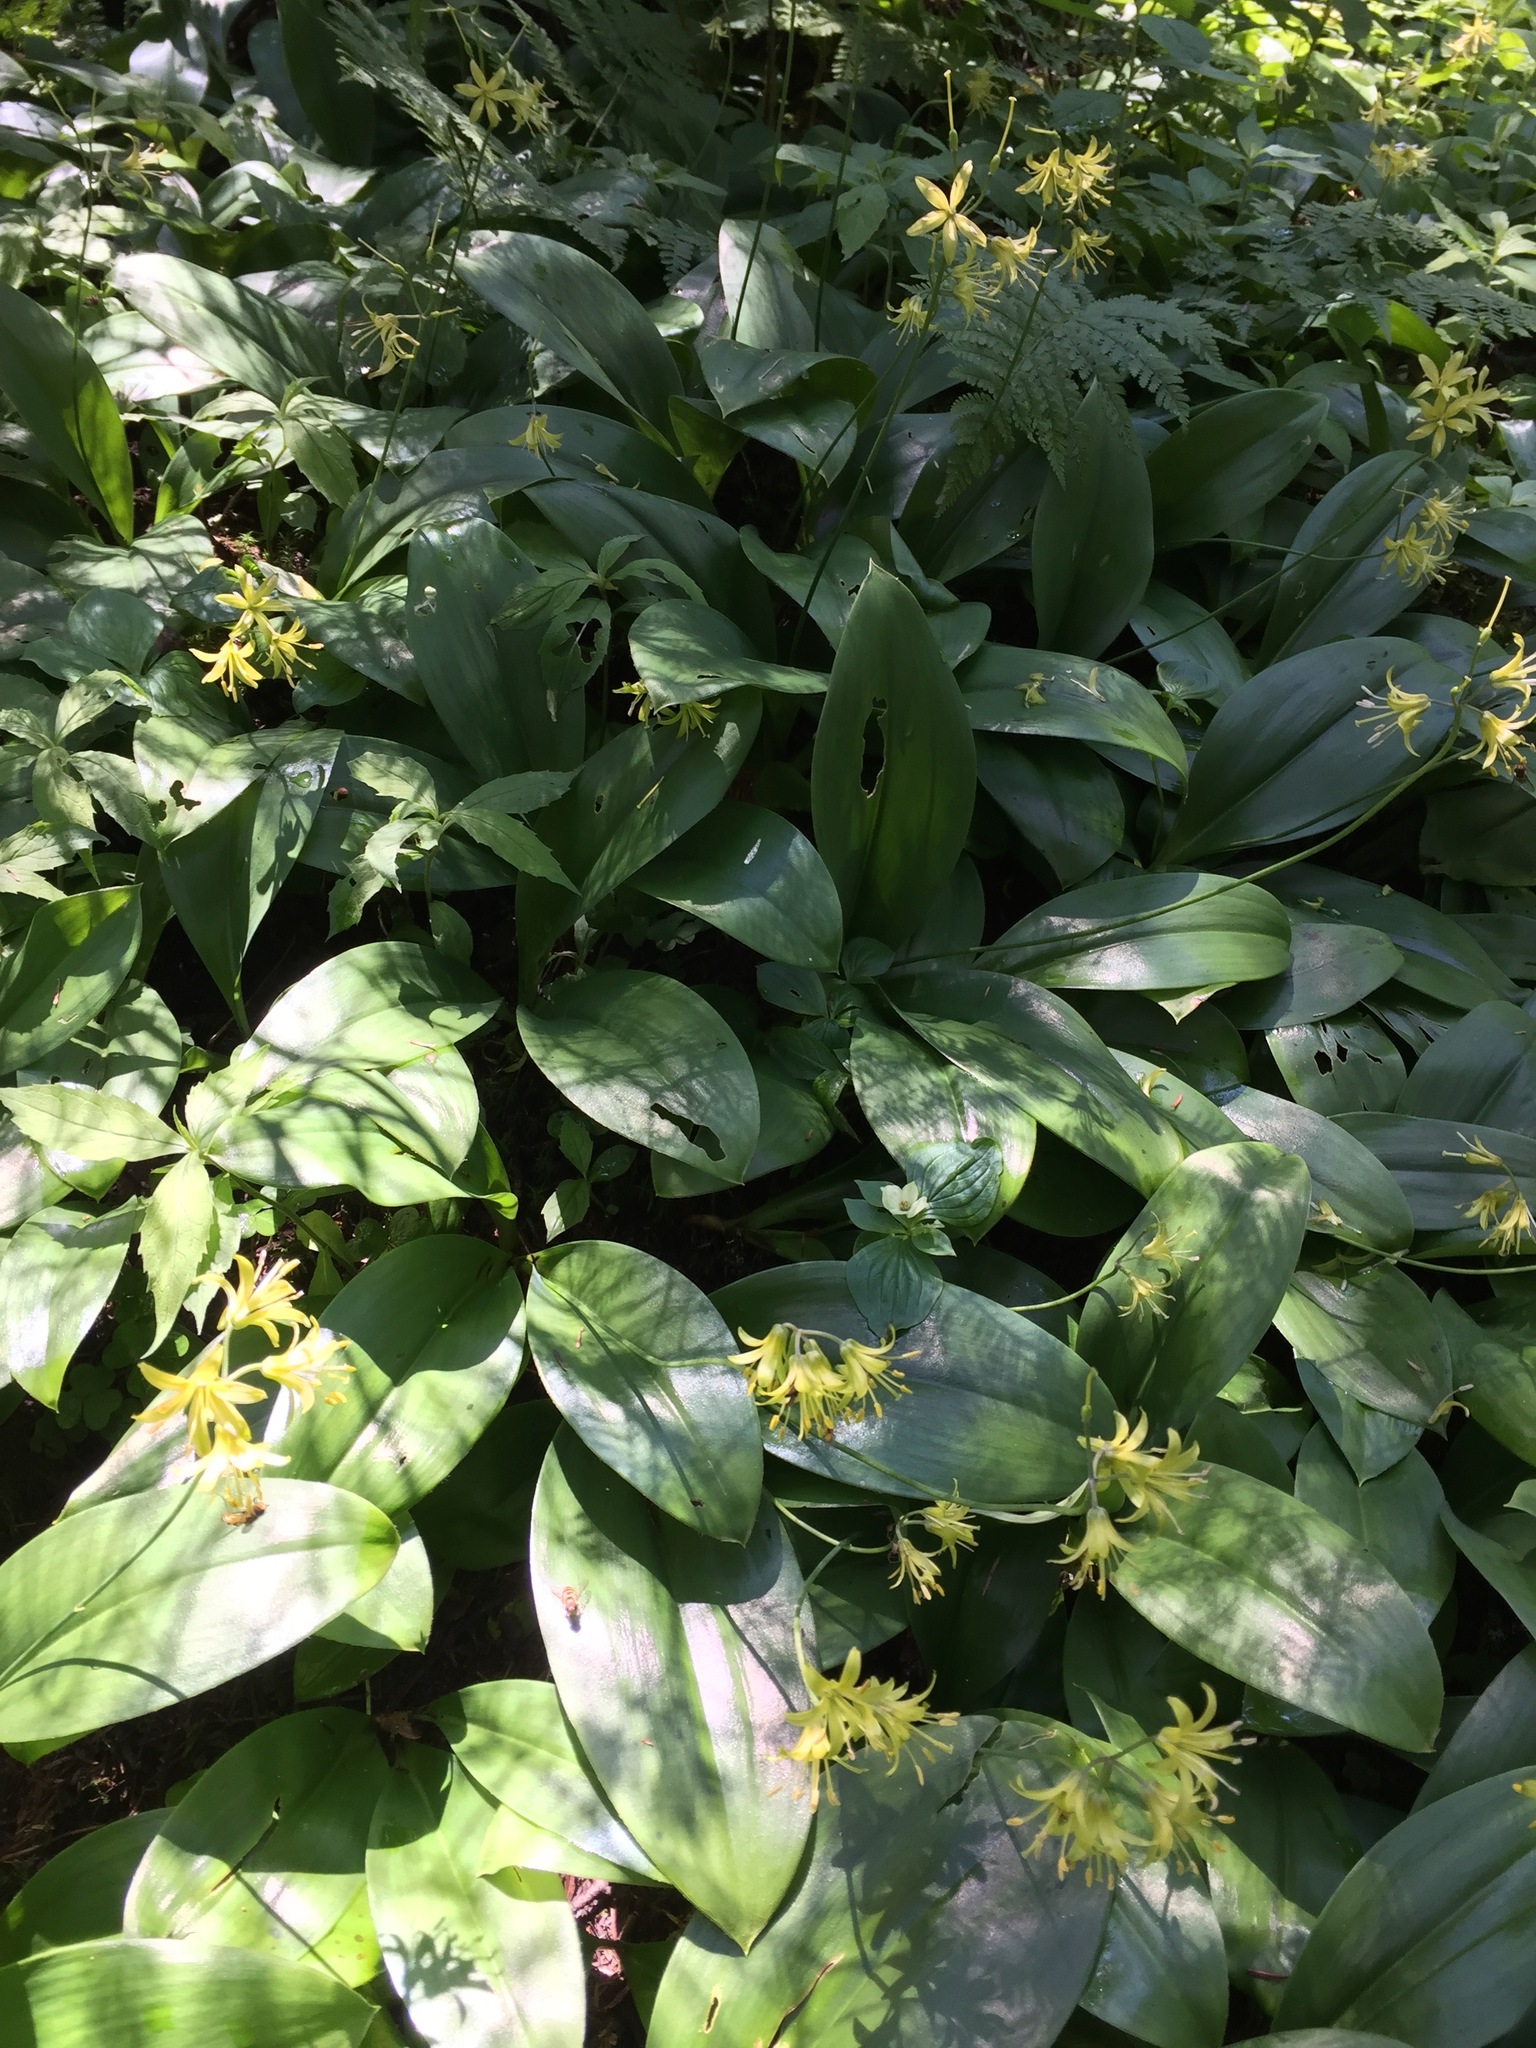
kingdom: Plantae
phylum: Tracheophyta
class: Liliopsida
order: Liliales
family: Liliaceae
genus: Clintonia
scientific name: Clintonia borealis
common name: Yellow clintonia
